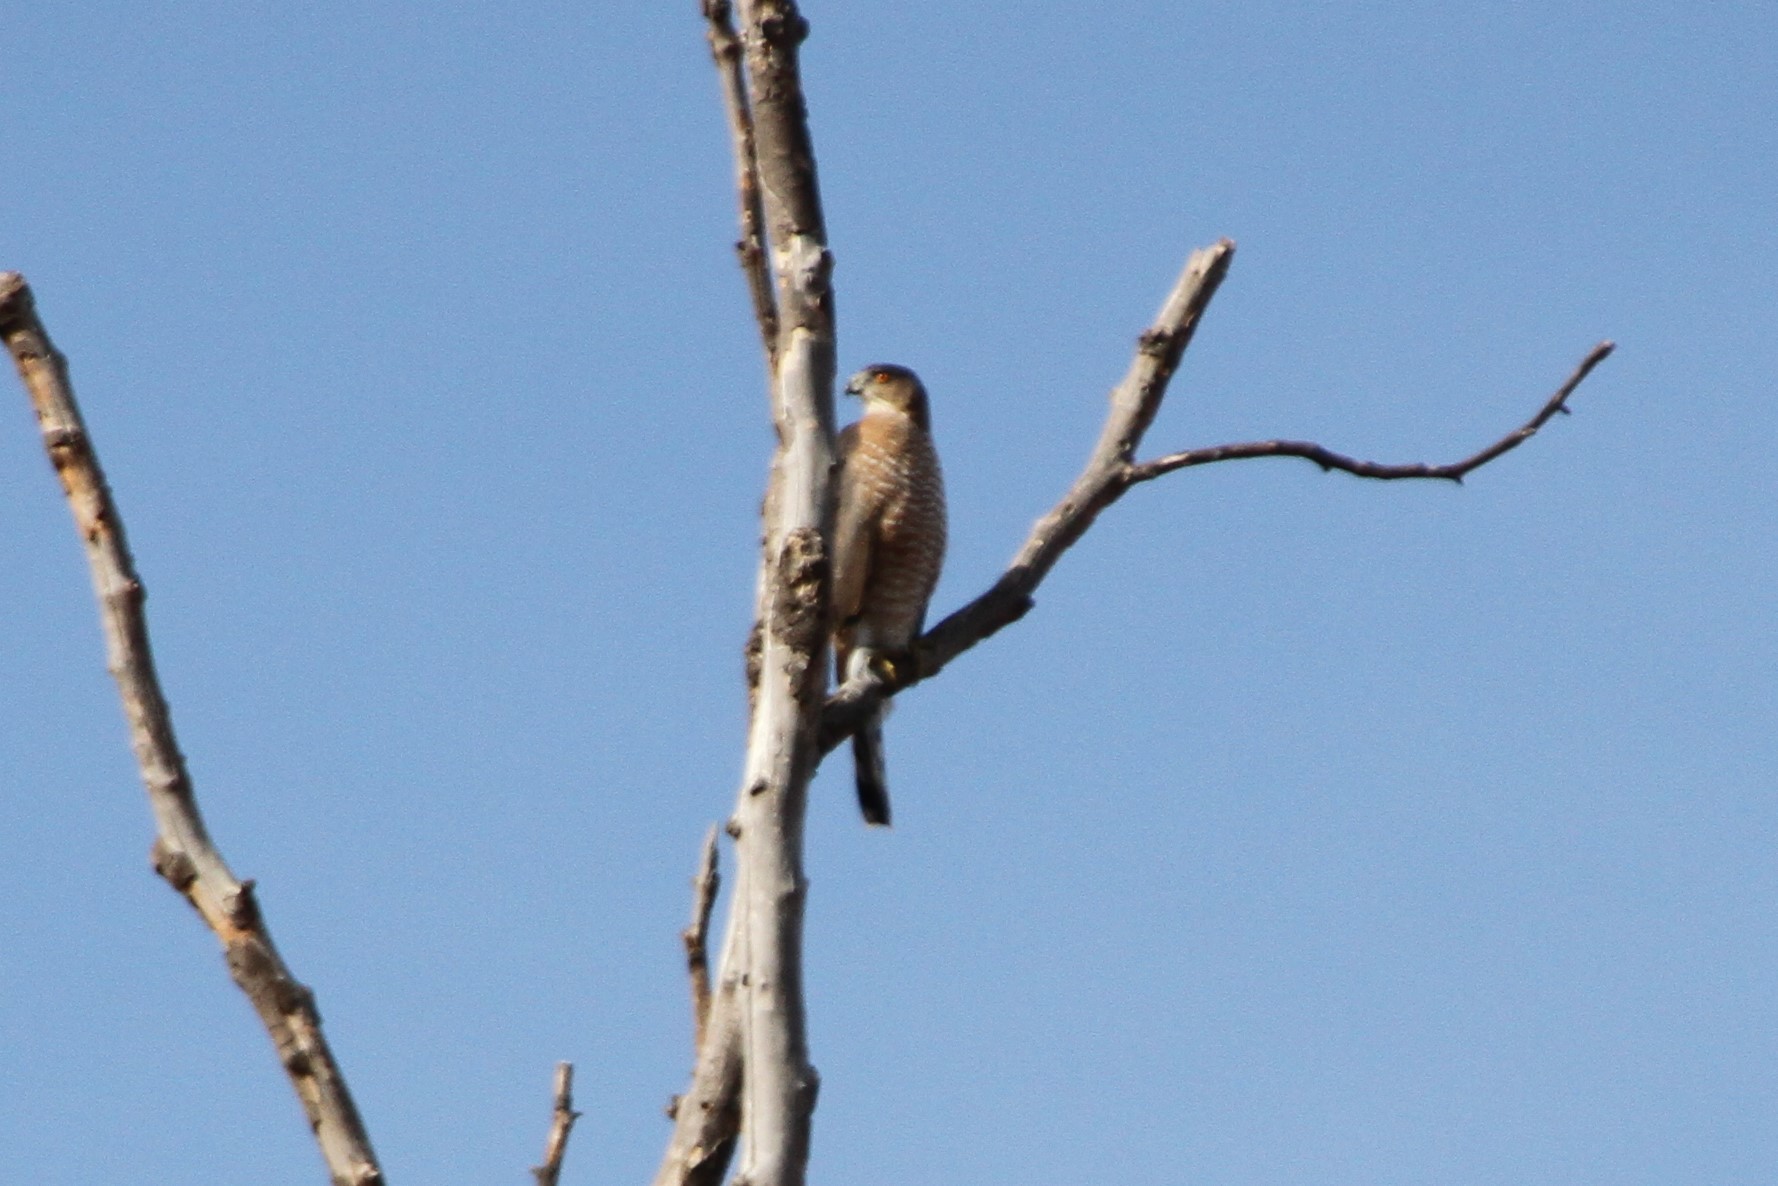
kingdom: Animalia
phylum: Chordata
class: Aves
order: Accipitriformes
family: Accipitridae
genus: Accipiter
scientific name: Accipiter cooperii
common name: Cooper's hawk
